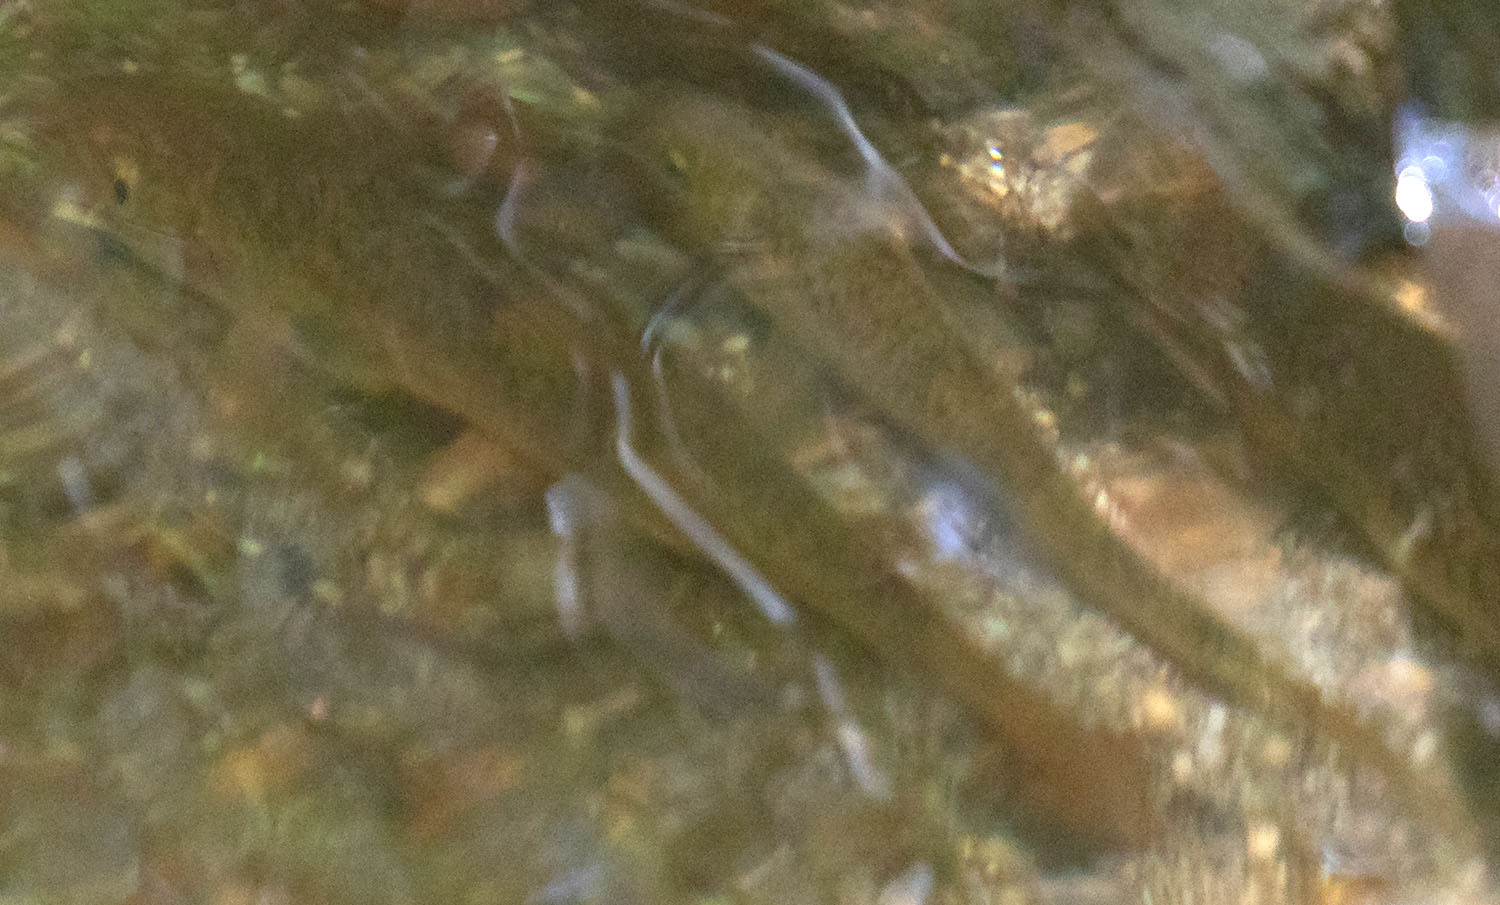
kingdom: Animalia
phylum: Chordata
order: Cypriniformes
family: Catostomidae
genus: Catostomus
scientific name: Catostomus occidentalis
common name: Goose lake sucker
